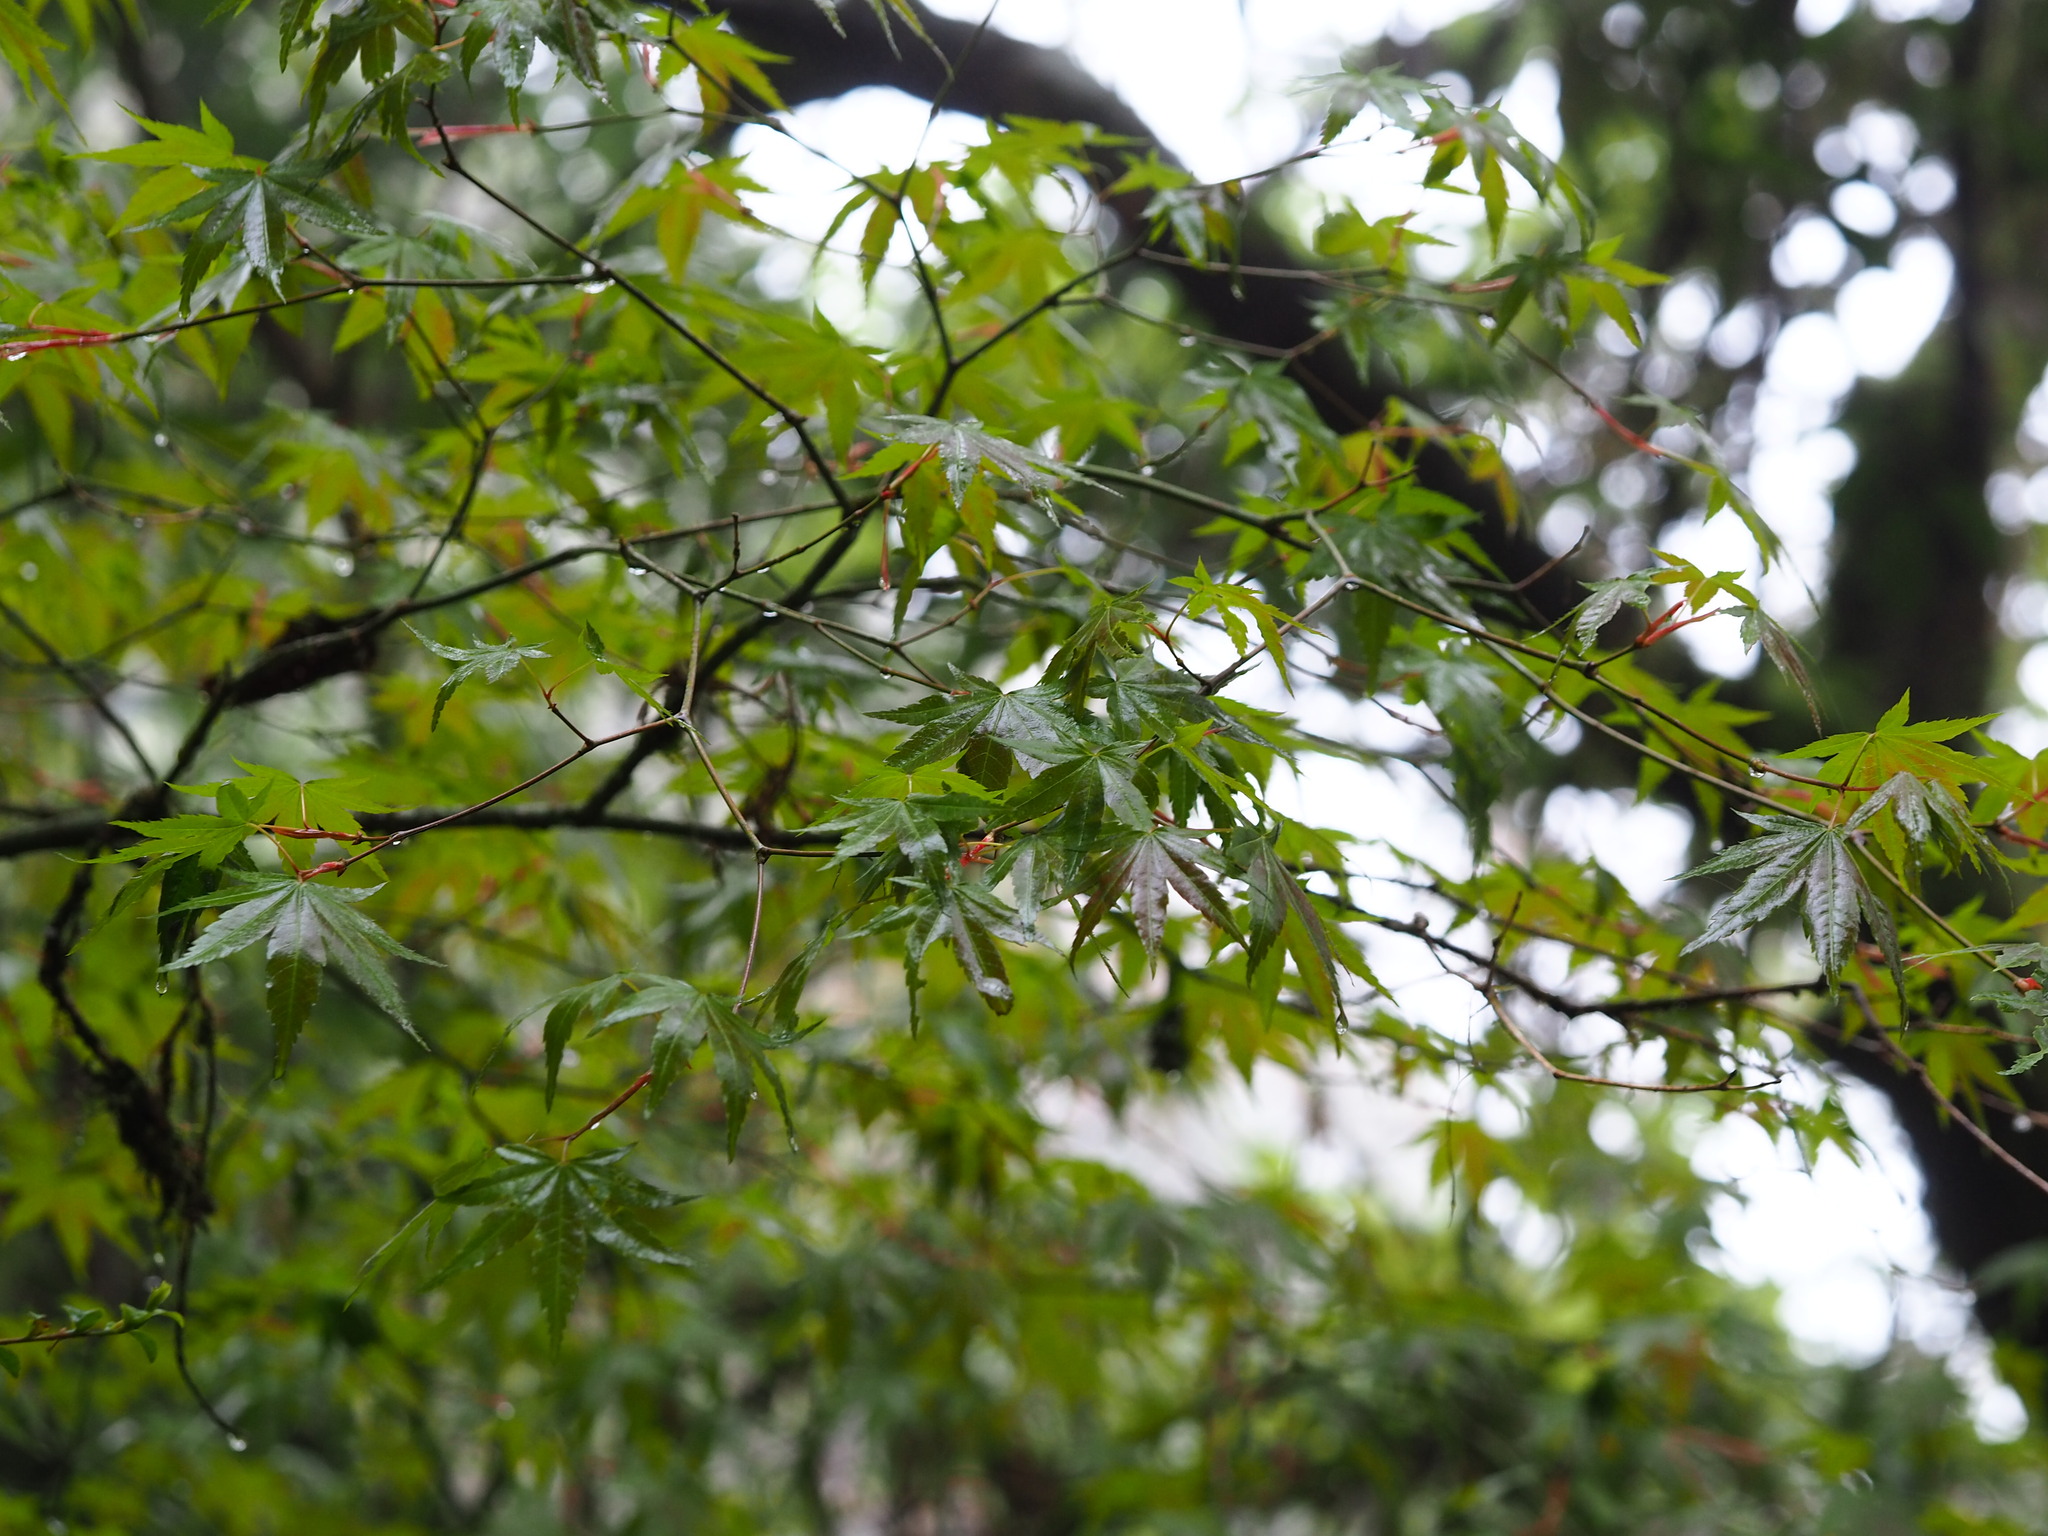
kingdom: Plantae
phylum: Tracheophyta
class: Magnoliopsida
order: Sapindales
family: Sapindaceae
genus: Acer
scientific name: Acer palmatum
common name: Japanese maple
